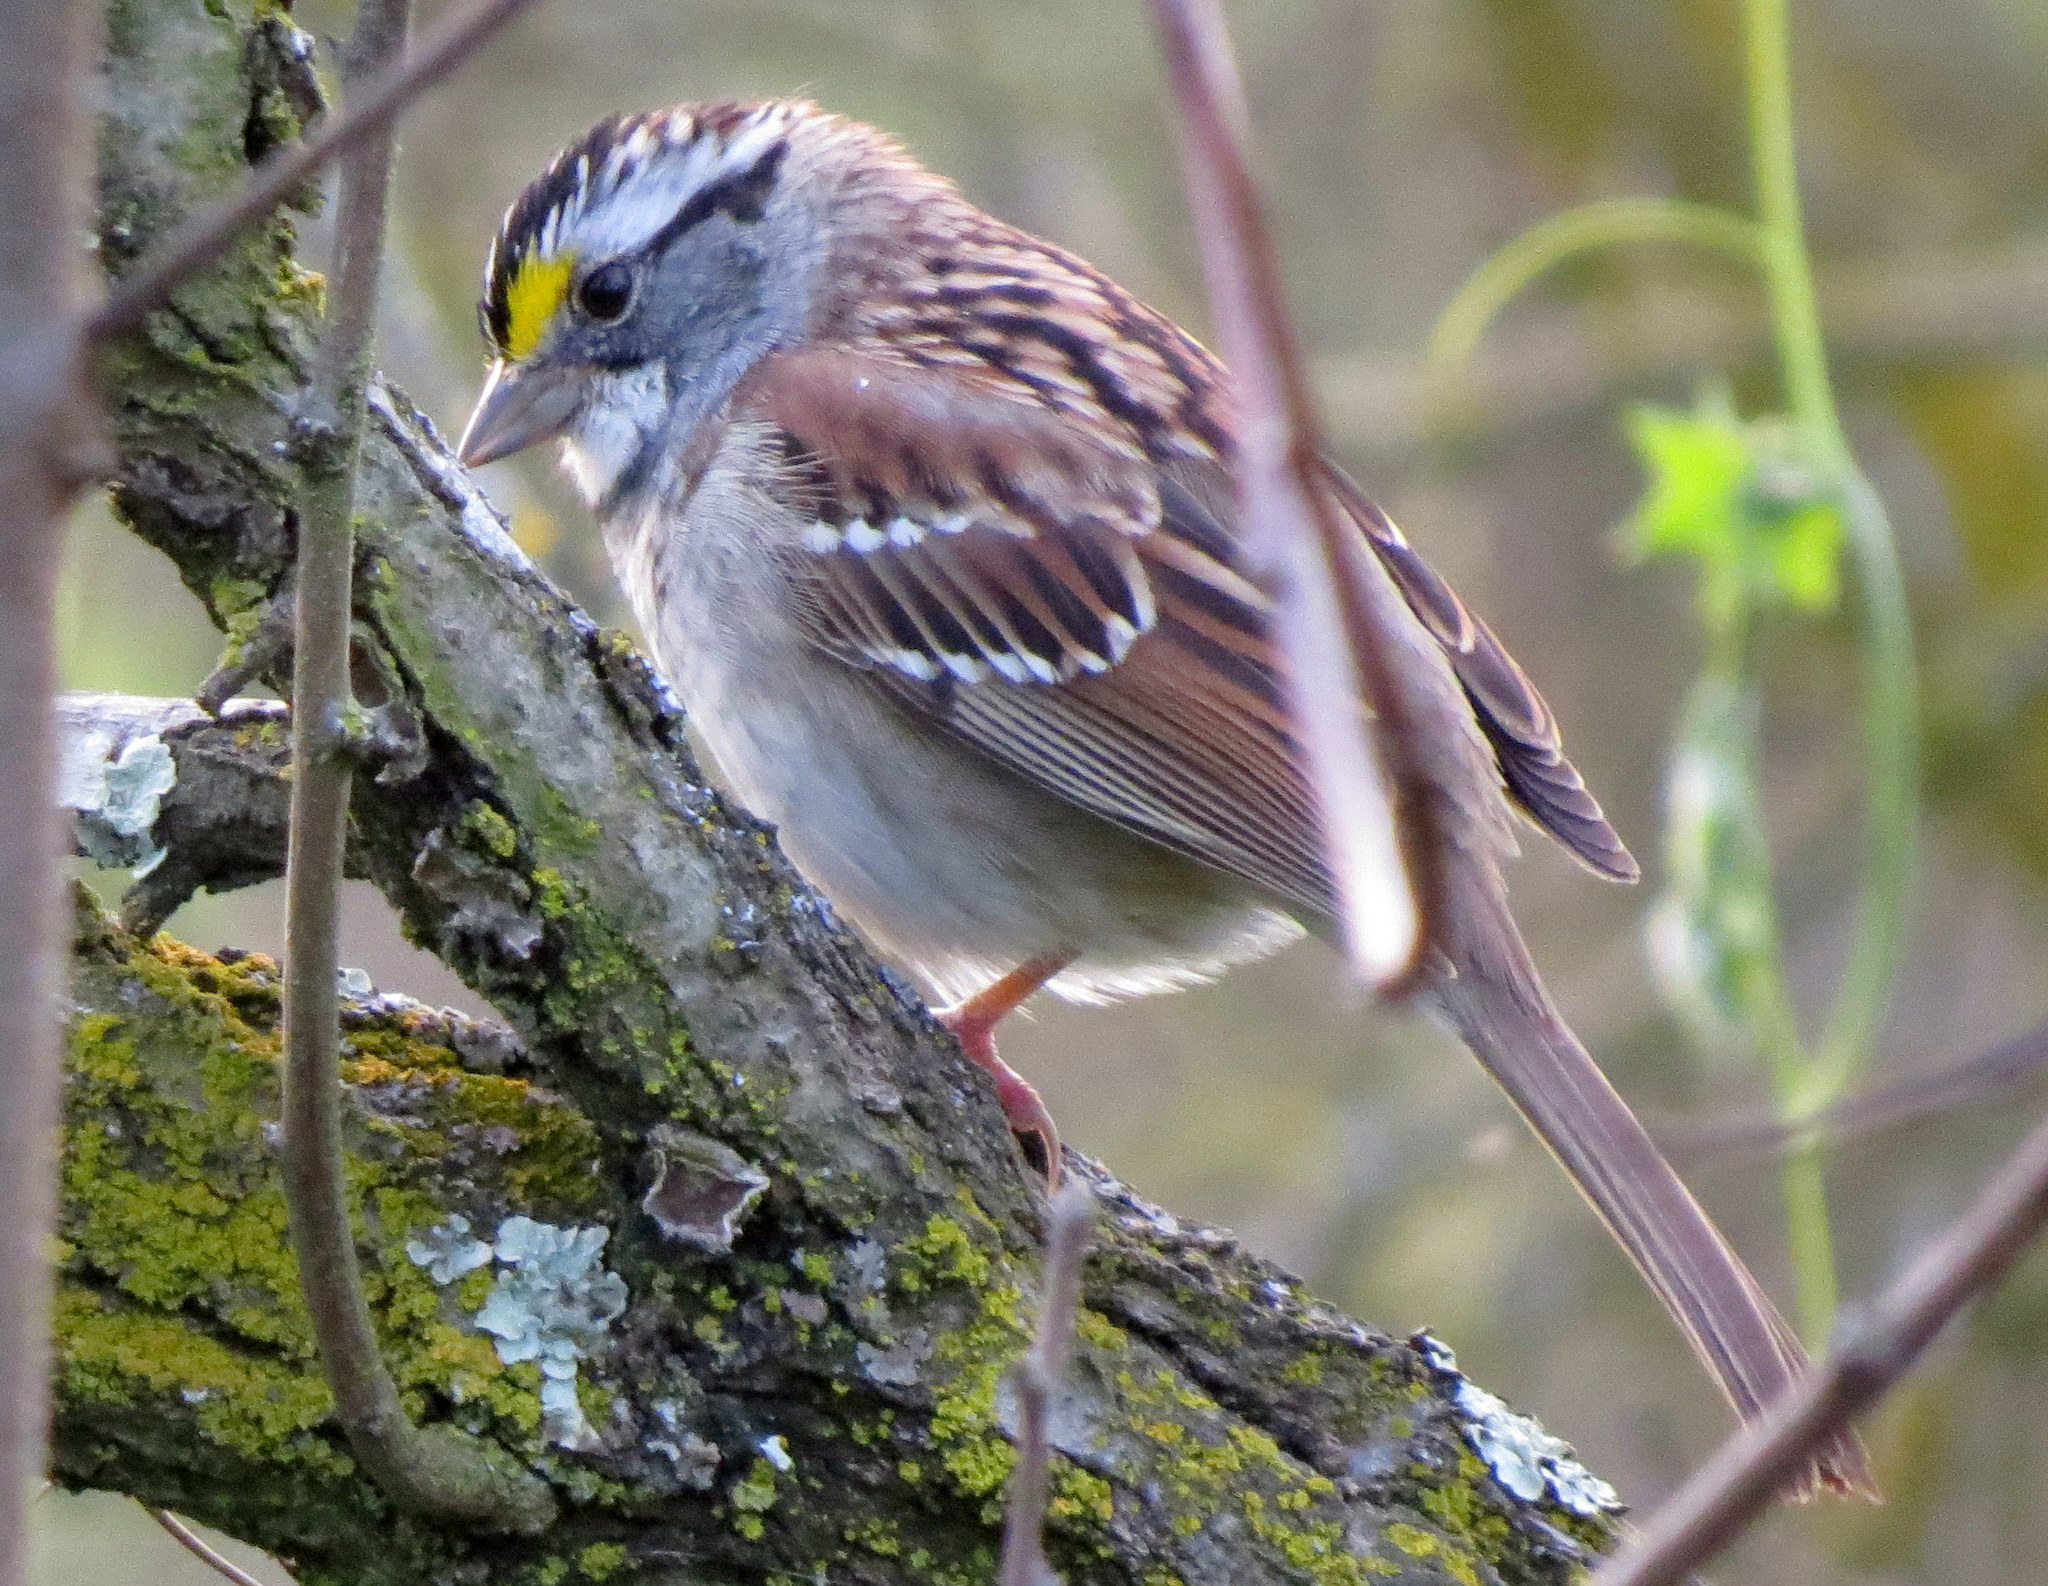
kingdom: Animalia
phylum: Chordata
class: Aves
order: Passeriformes
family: Passerellidae
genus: Zonotrichia
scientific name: Zonotrichia albicollis
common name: White-throated sparrow
